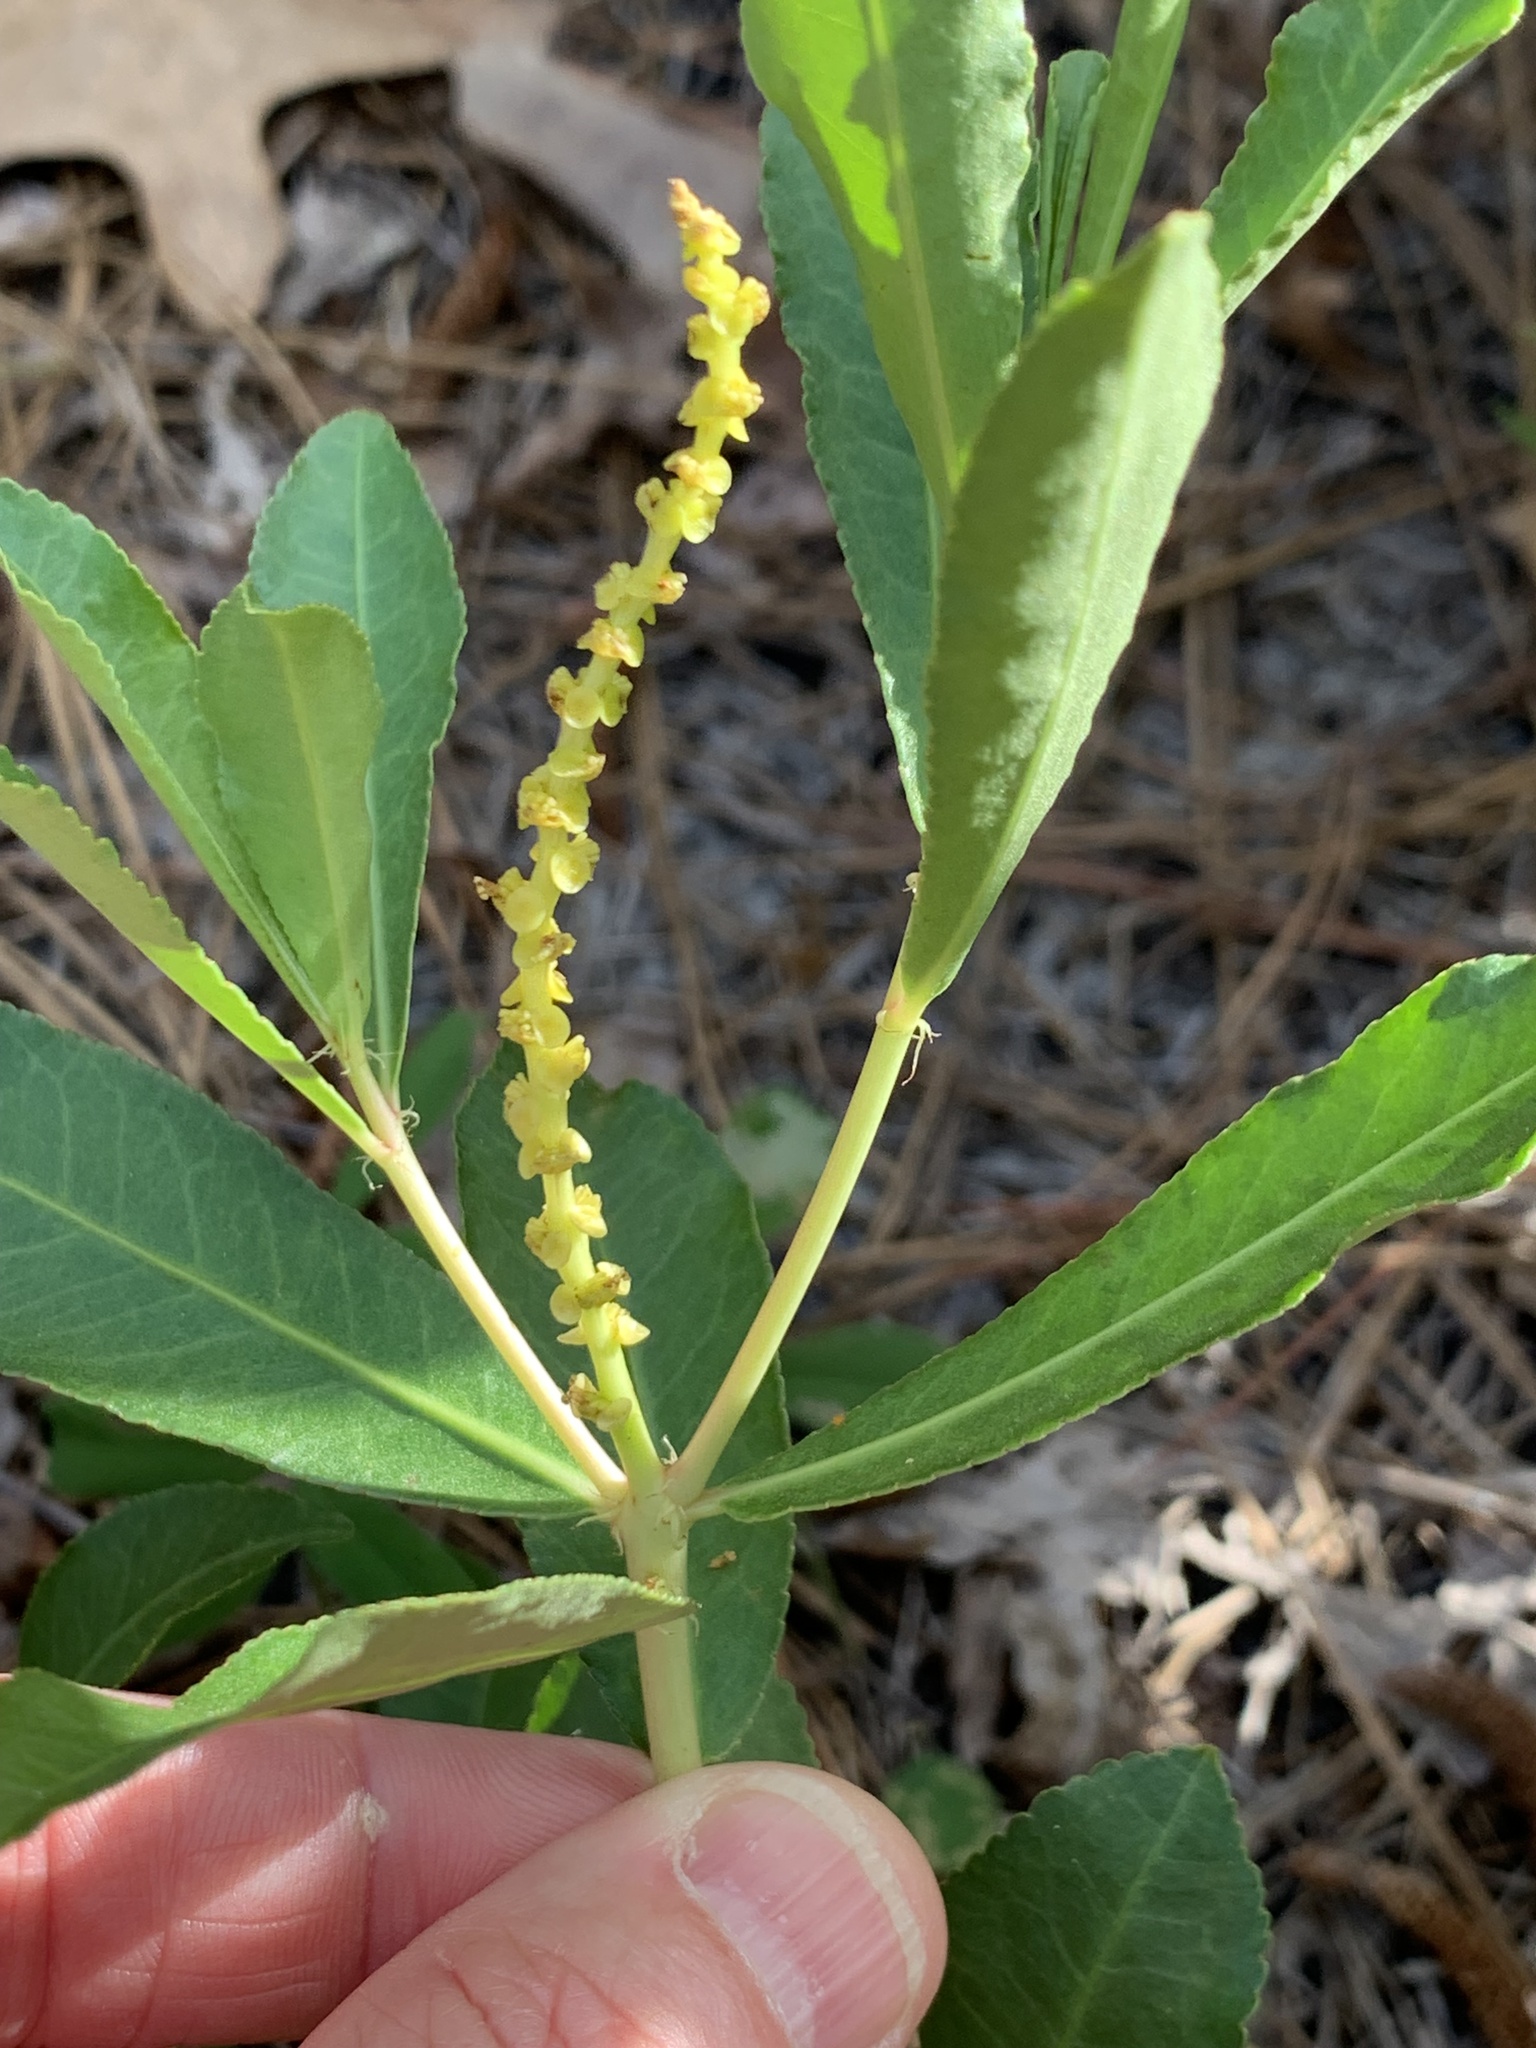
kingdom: Plantae
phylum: Tracheophyta
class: Magnoliopsida
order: Malpighiales
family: Euphorbiaceae
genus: Stillingia
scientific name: Stillingia sylvatica
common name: Queen's-delight
